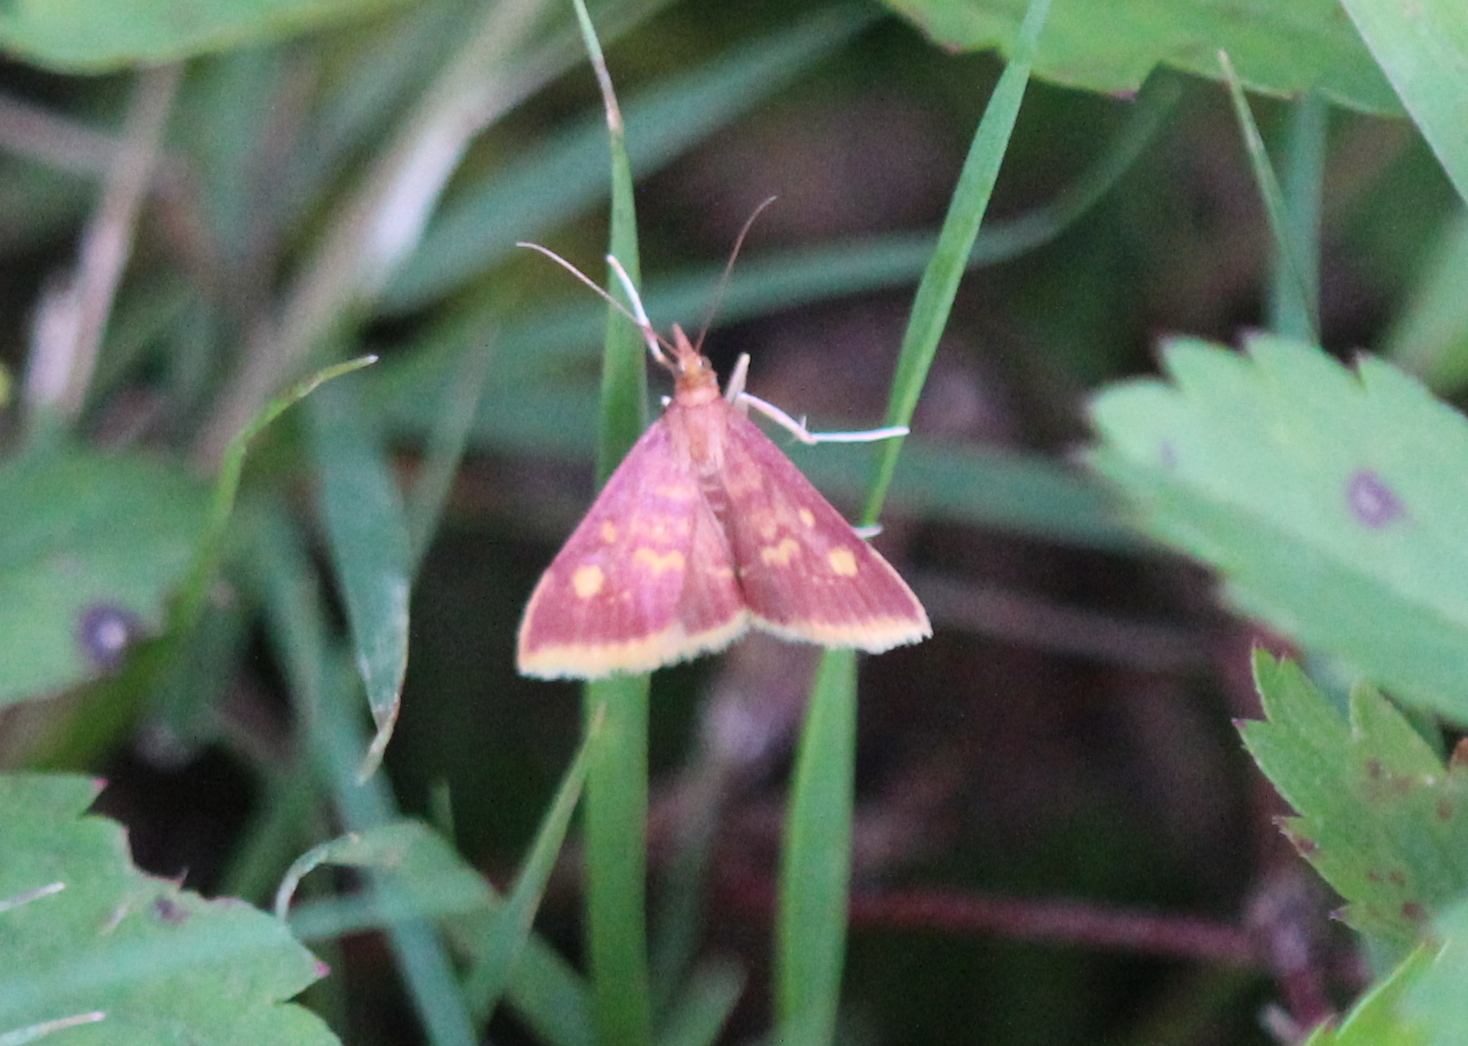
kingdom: Animalia
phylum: Arthropoda
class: Insecta
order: Lepidoptera
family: Crambidae
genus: Pyrausta
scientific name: Pyrausta acrionalis
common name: Mint-loving pyrausta moth
